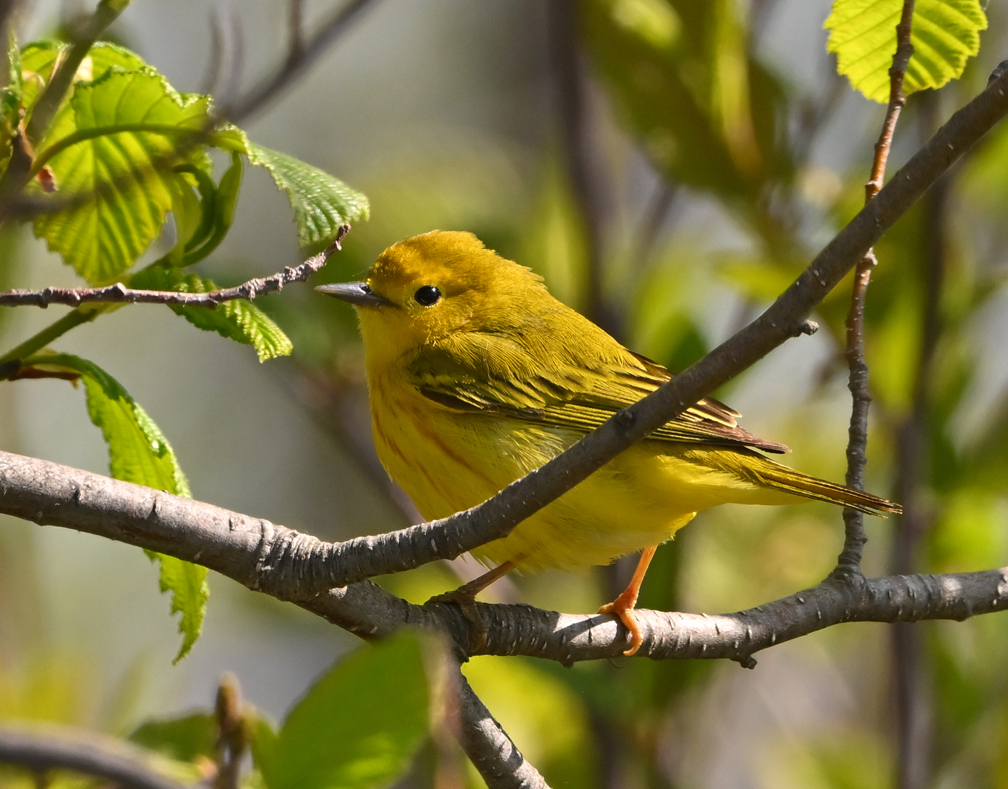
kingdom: Animalia
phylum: Chordata
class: Aves
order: Passeriformes
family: Parulidae
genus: Setophaga
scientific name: Setophaga petechia
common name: Yellow warbler
